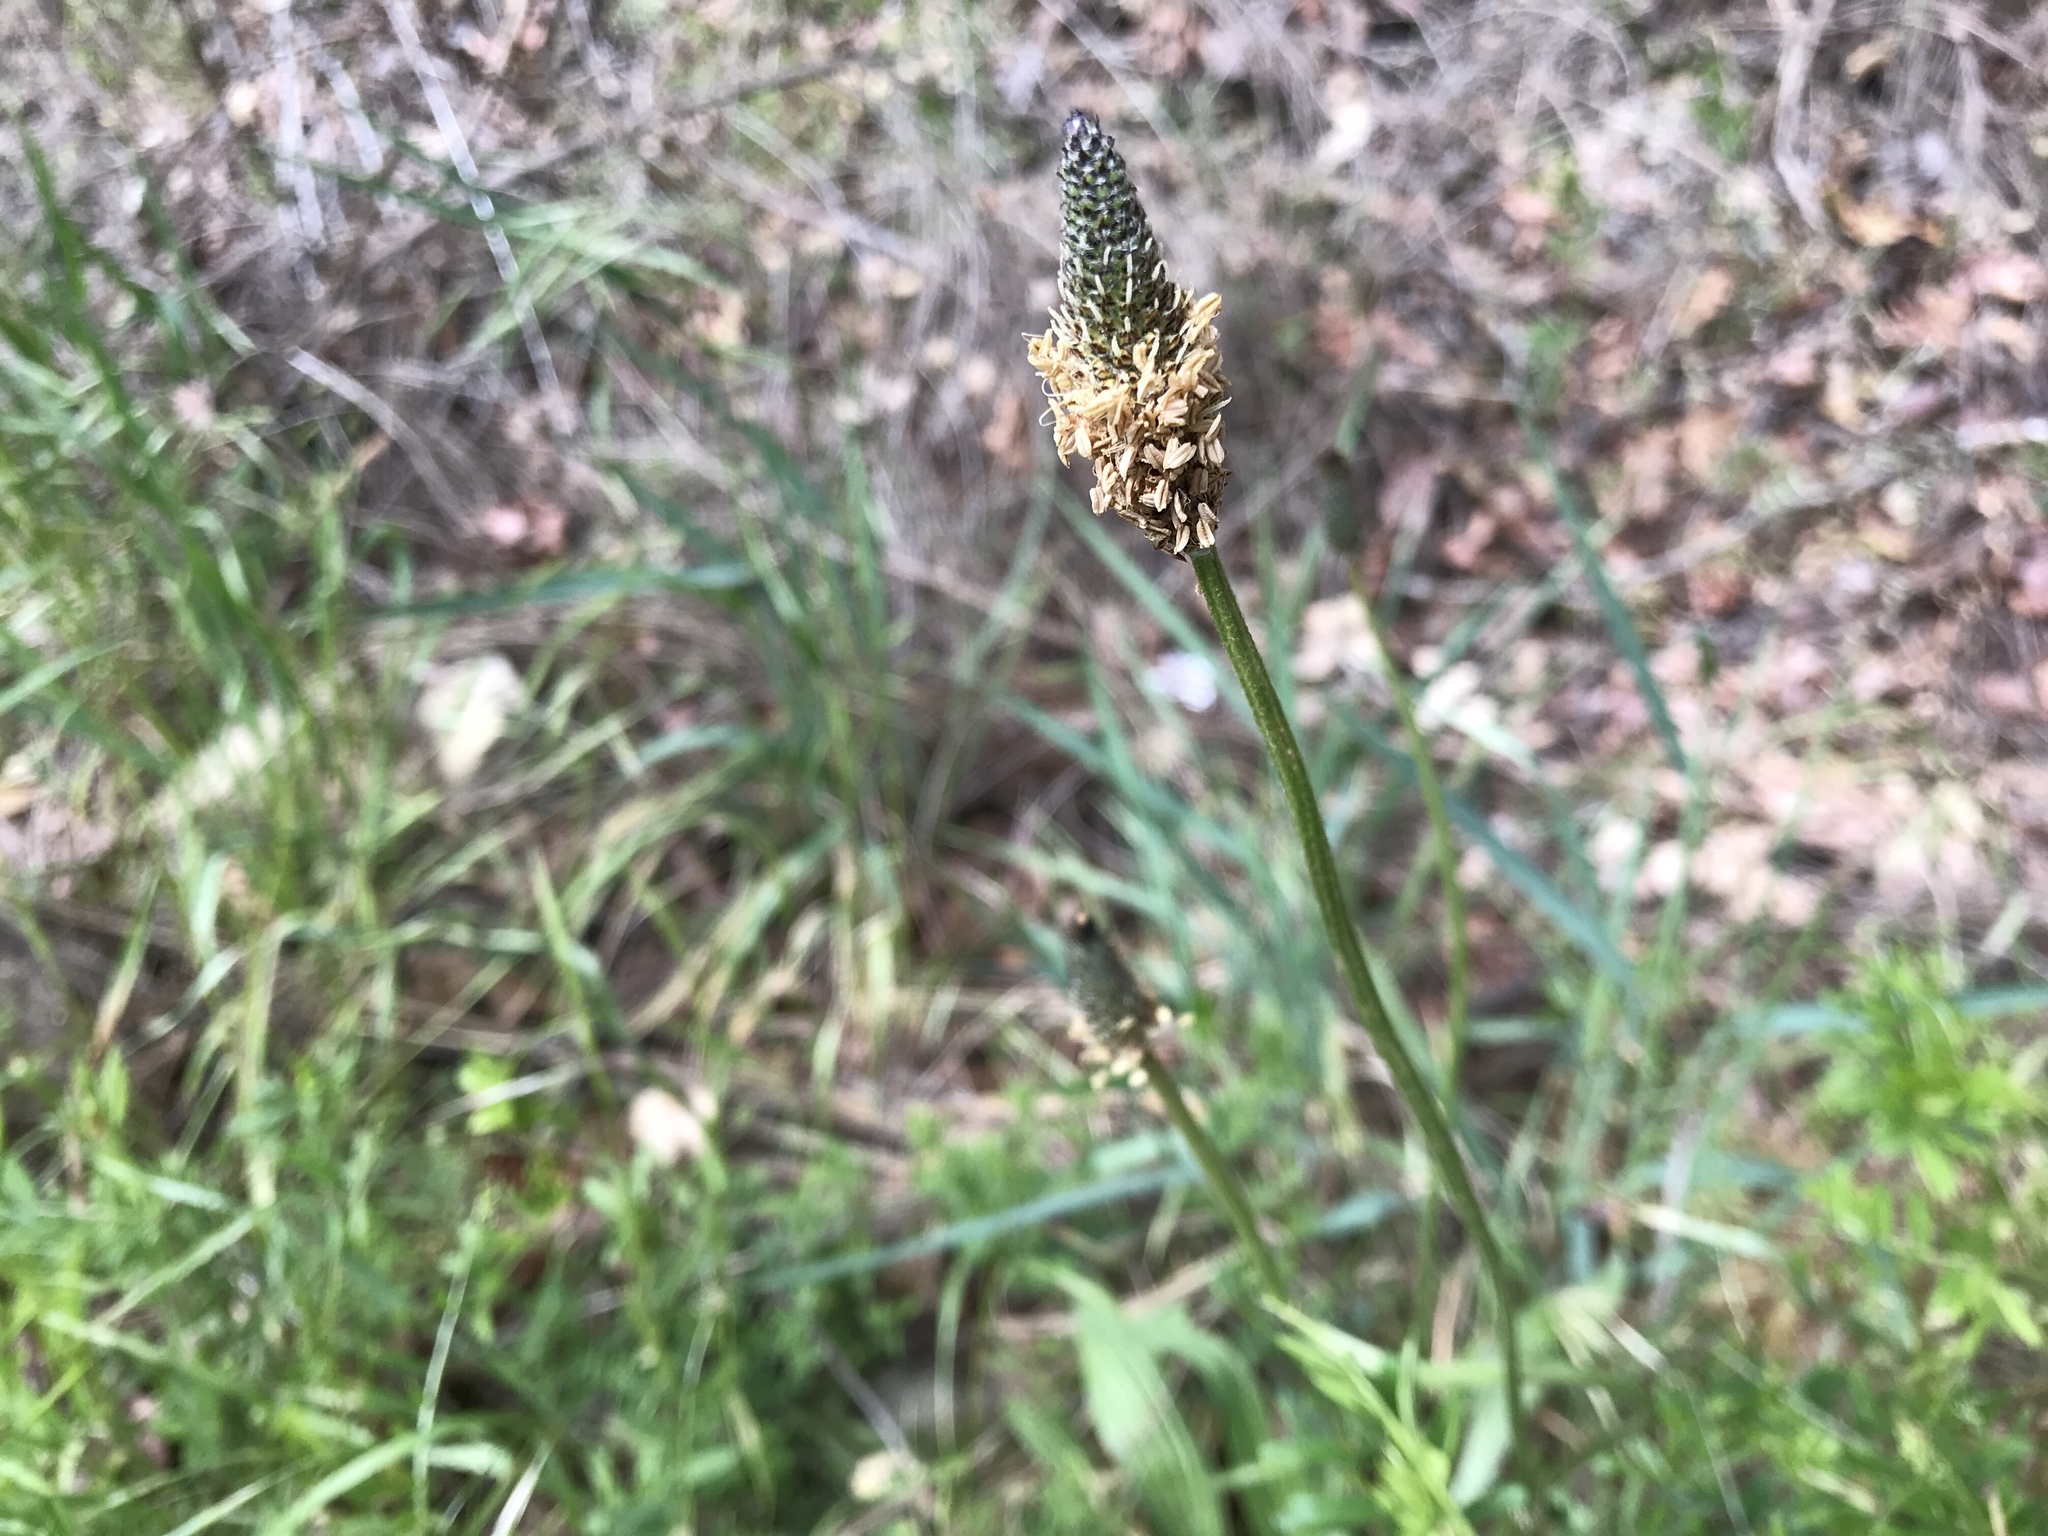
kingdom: Plantae
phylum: Tracheophyta
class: Magnoliopsida
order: Lamiales
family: Plantaginaceae
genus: Plantago
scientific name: Plantago lanceolata
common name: Ribwort plantain
